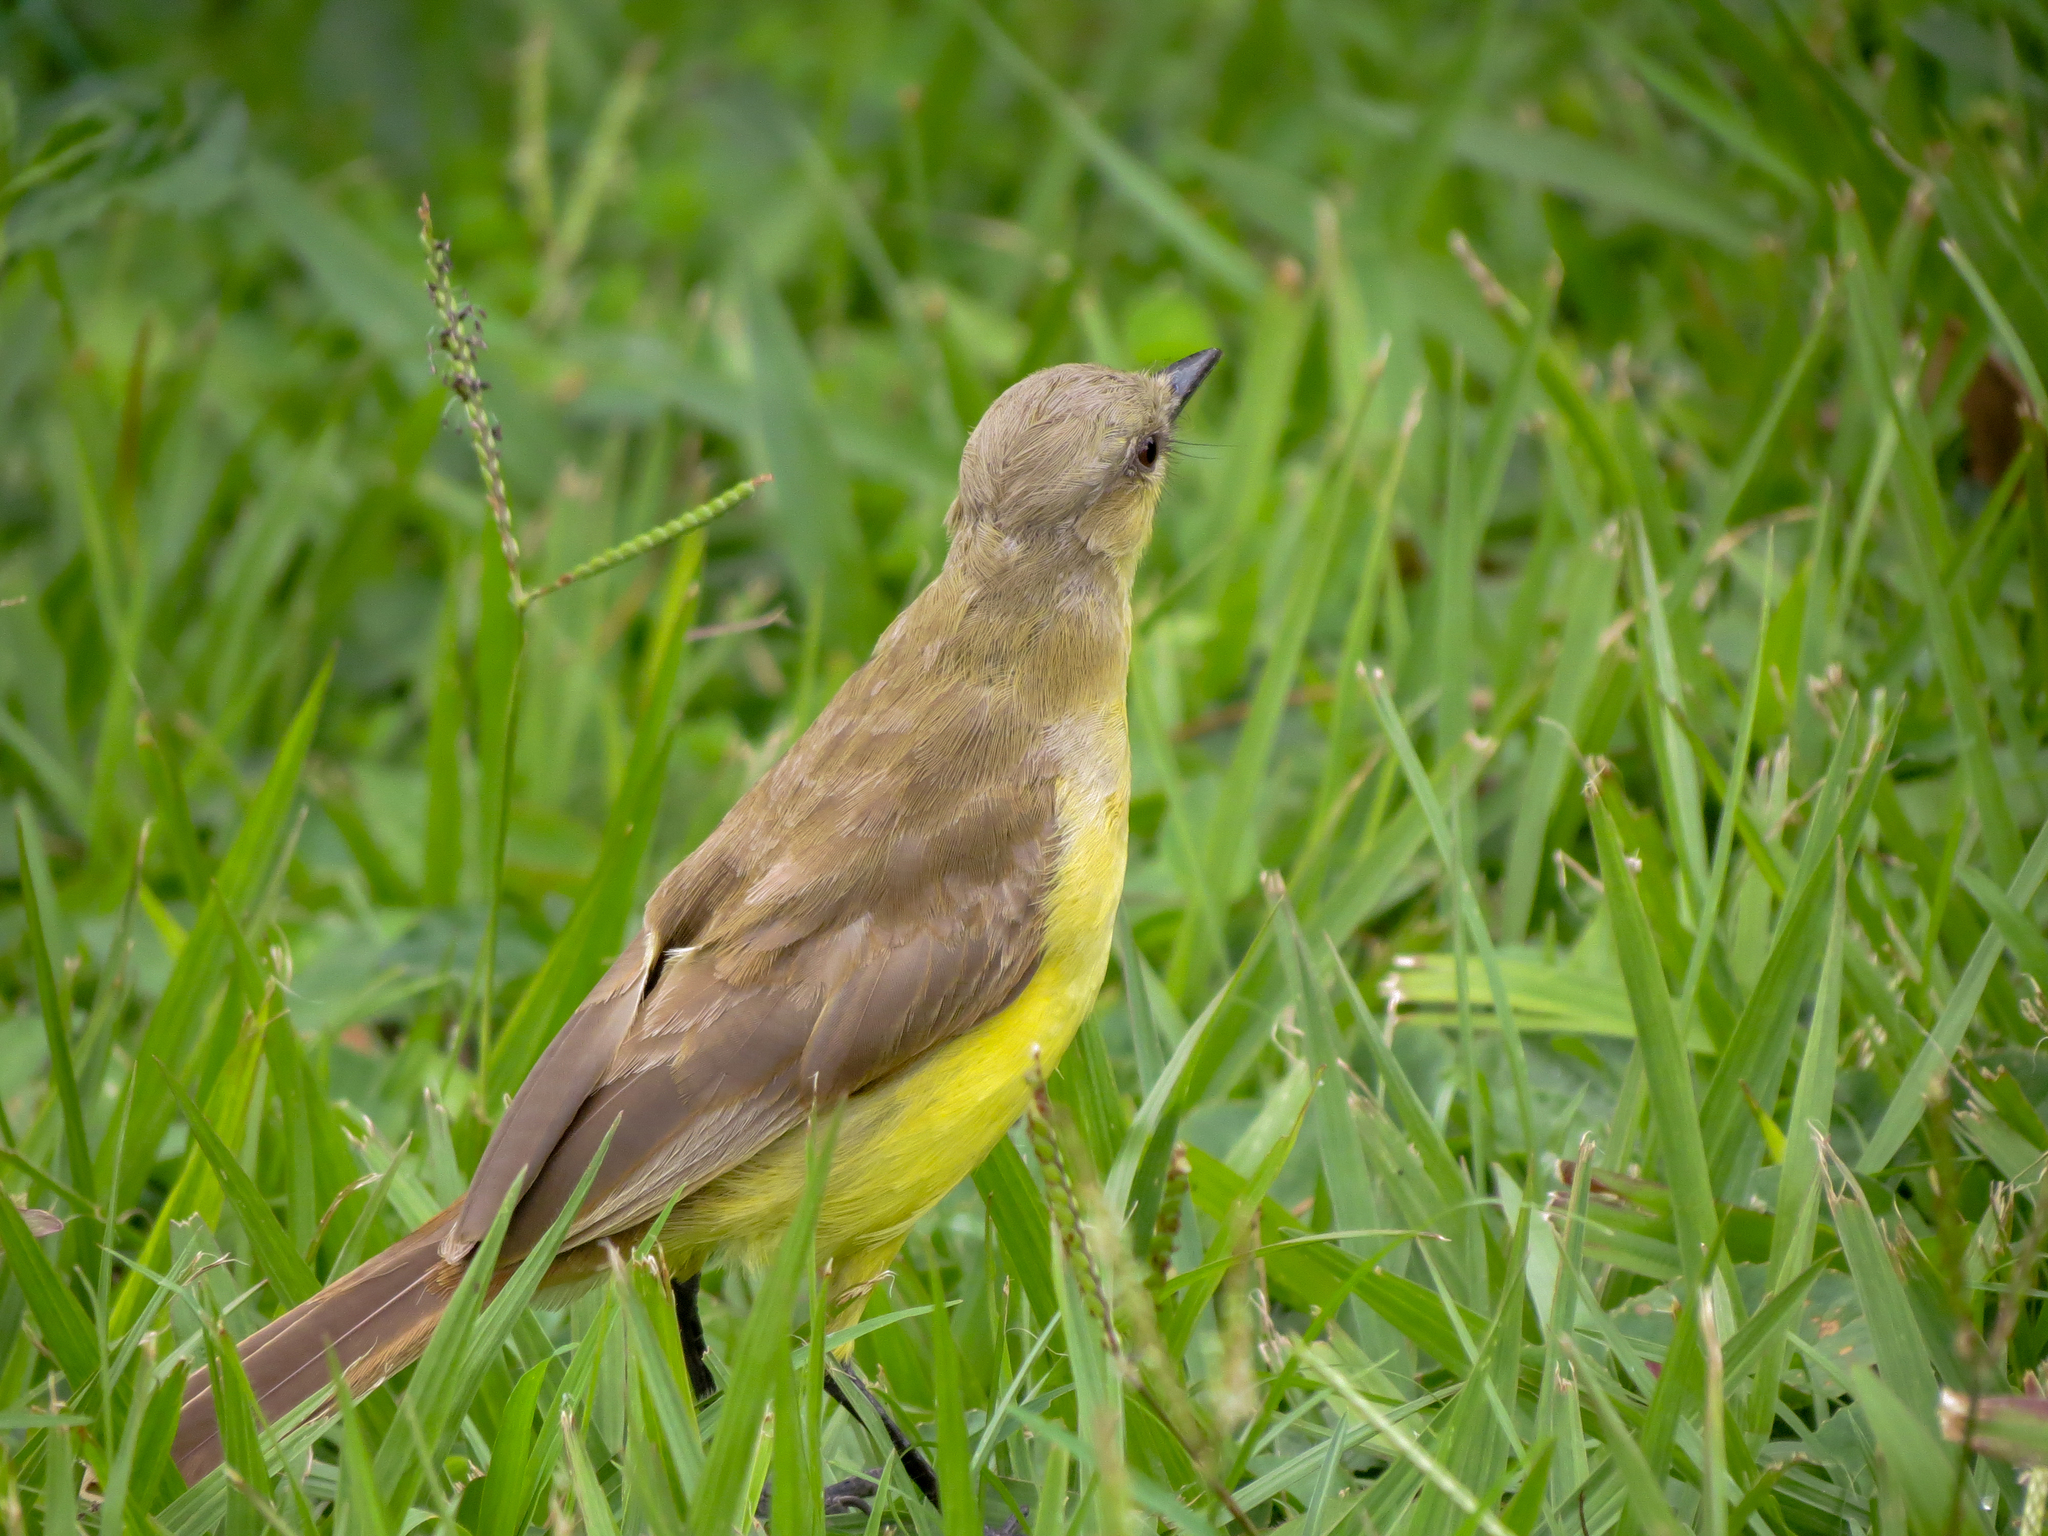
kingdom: Animalia
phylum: Chordata
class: Aves
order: Passeriformes
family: Tyrannidae
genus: Machetornis
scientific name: Machetornis rixosa
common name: Cattle tyrant
